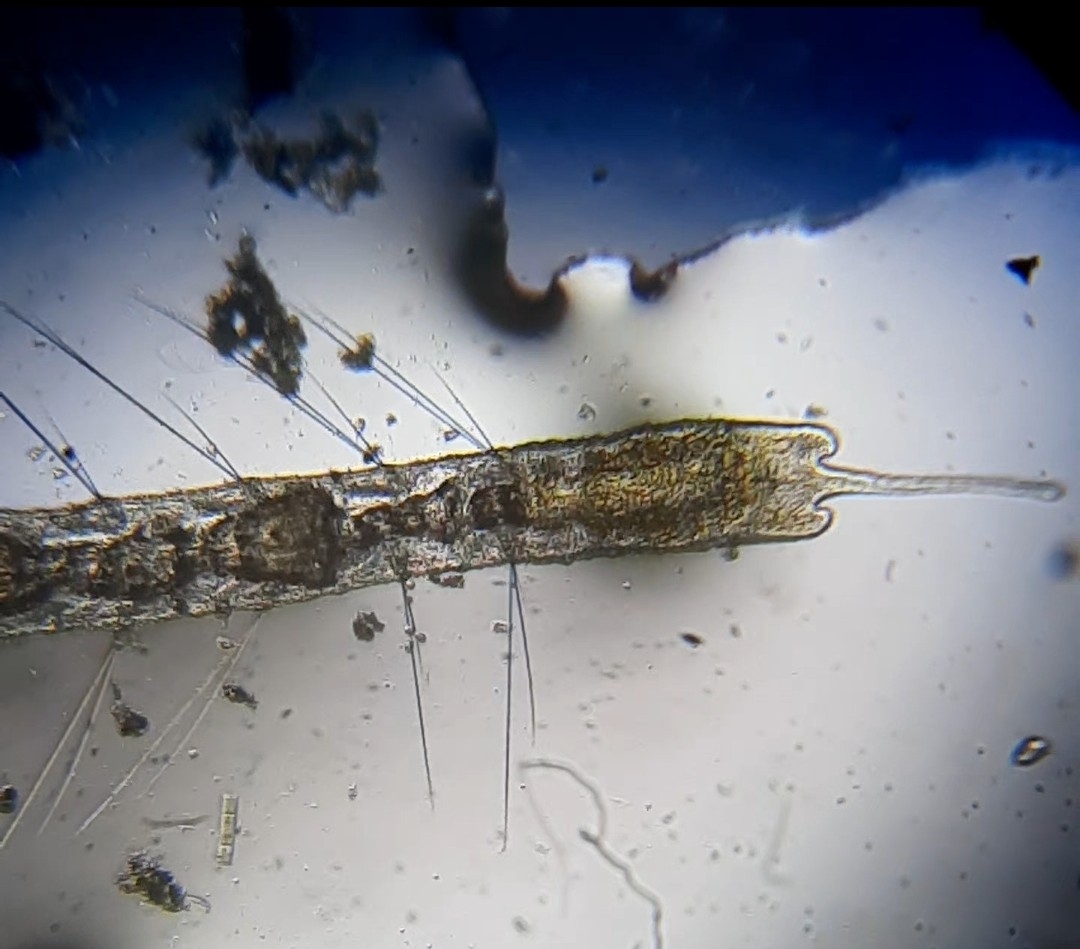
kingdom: Animalia
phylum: Annelida
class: Clitellata
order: Tubificida
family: Naididae
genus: Stylaria
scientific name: Stylaria lacustris
